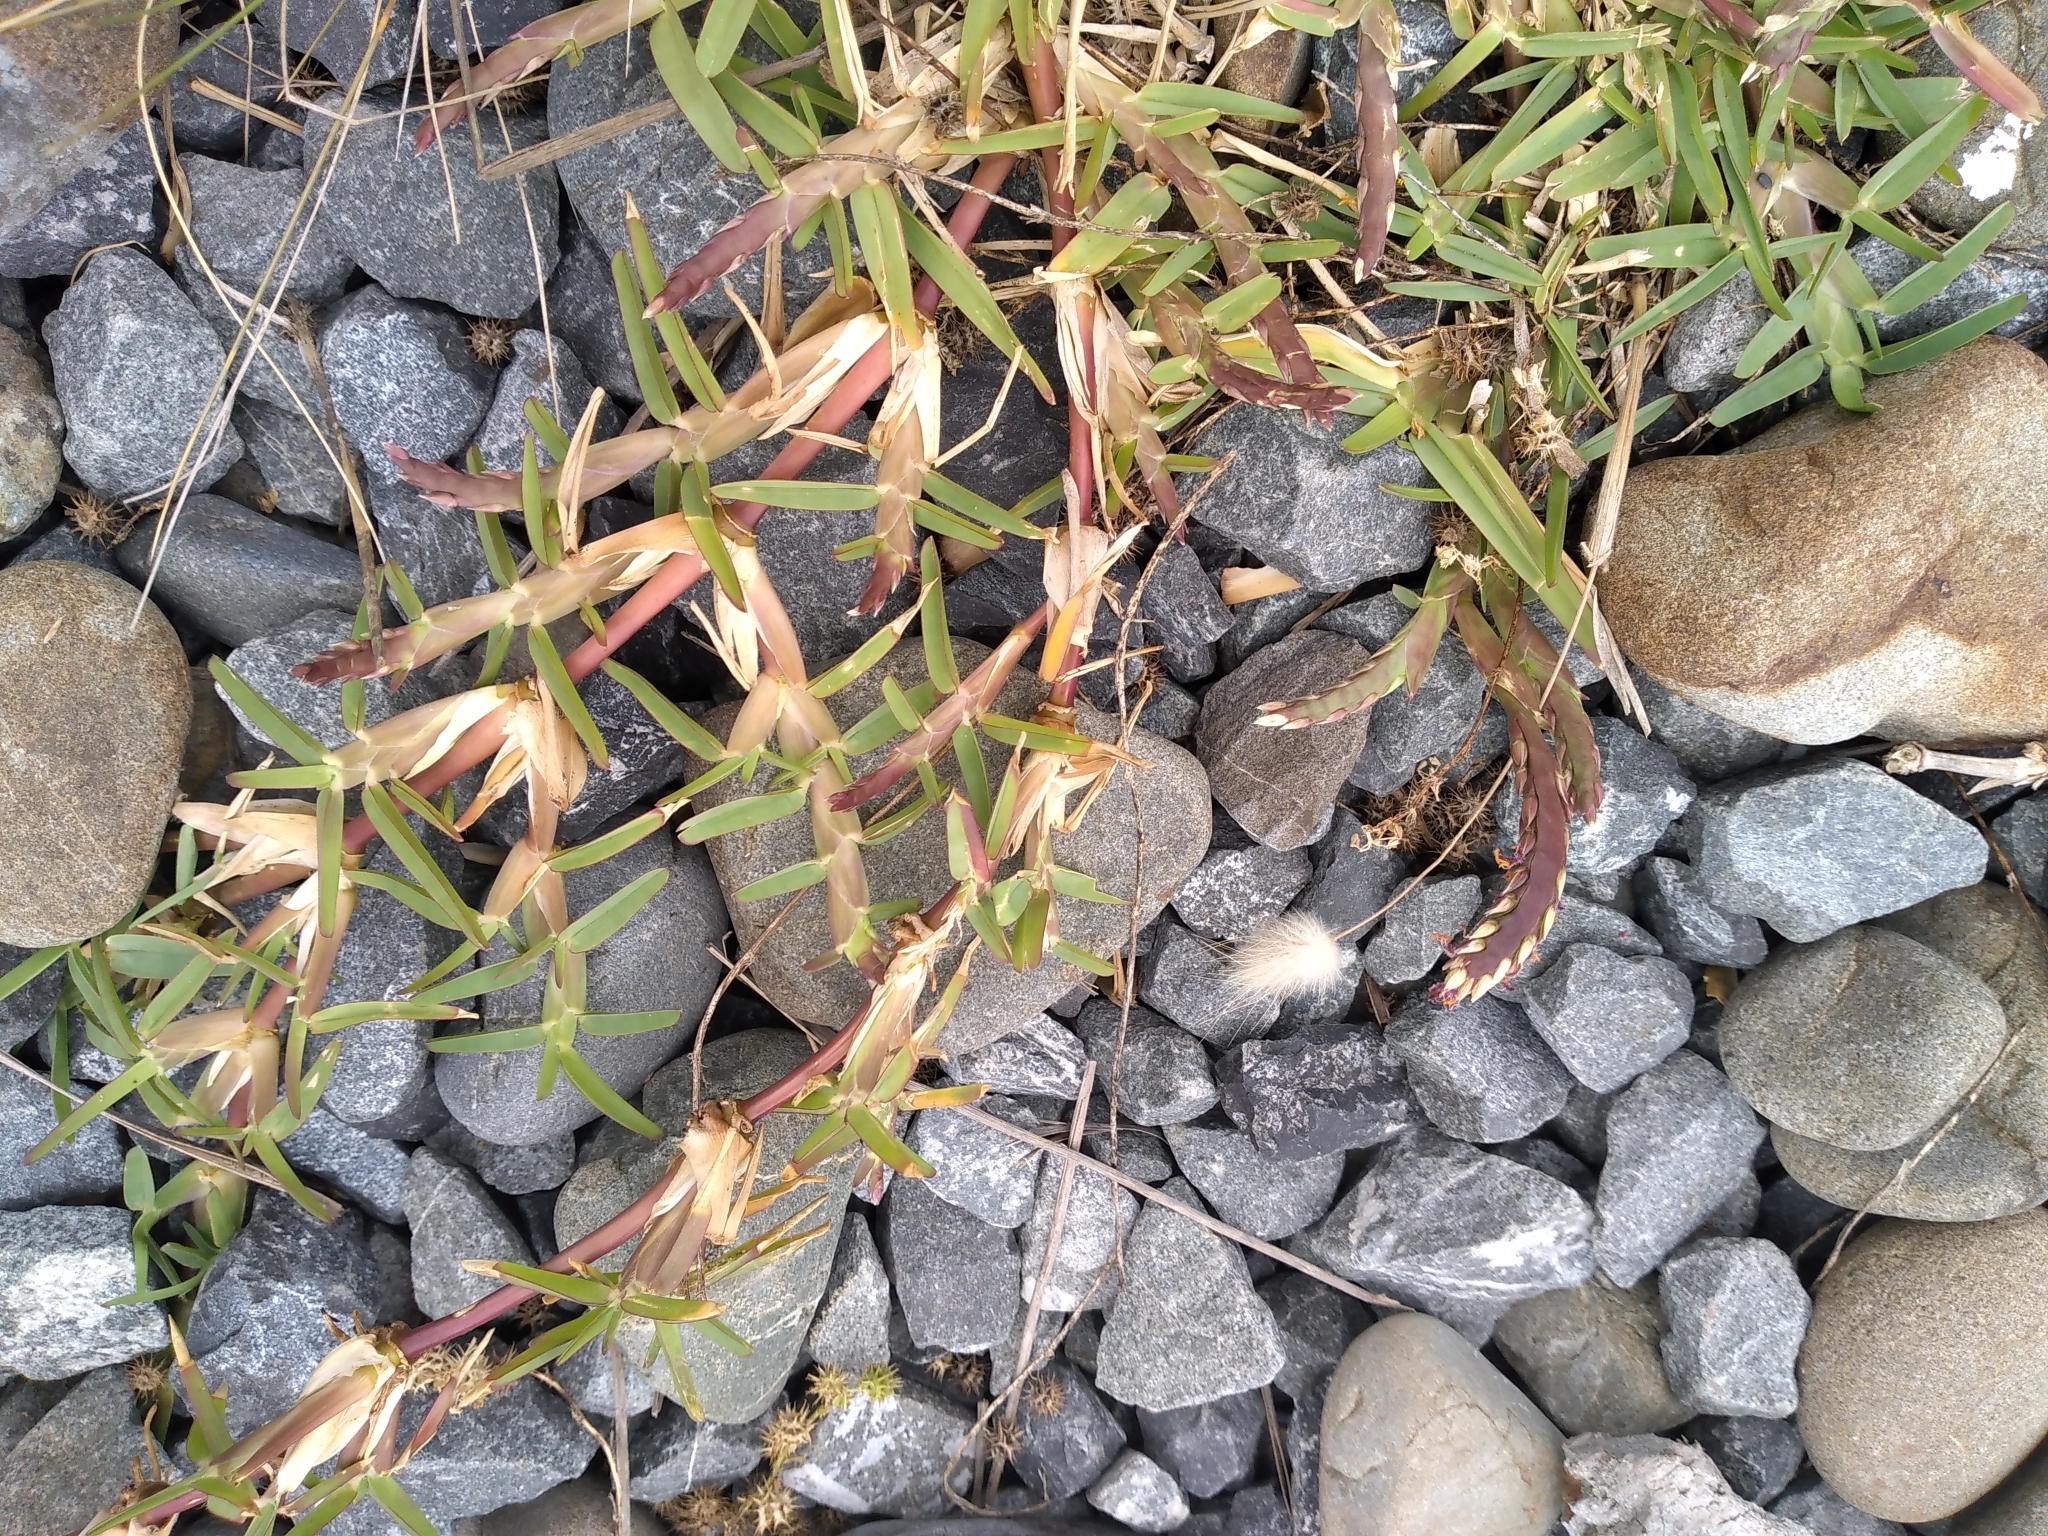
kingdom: Plantae
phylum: Tracheophyta
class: Liliopsida
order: Poales
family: Poaceae
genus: Stenotaphrum
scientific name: Stenotaphrum secundatum
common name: St. augustine grass
